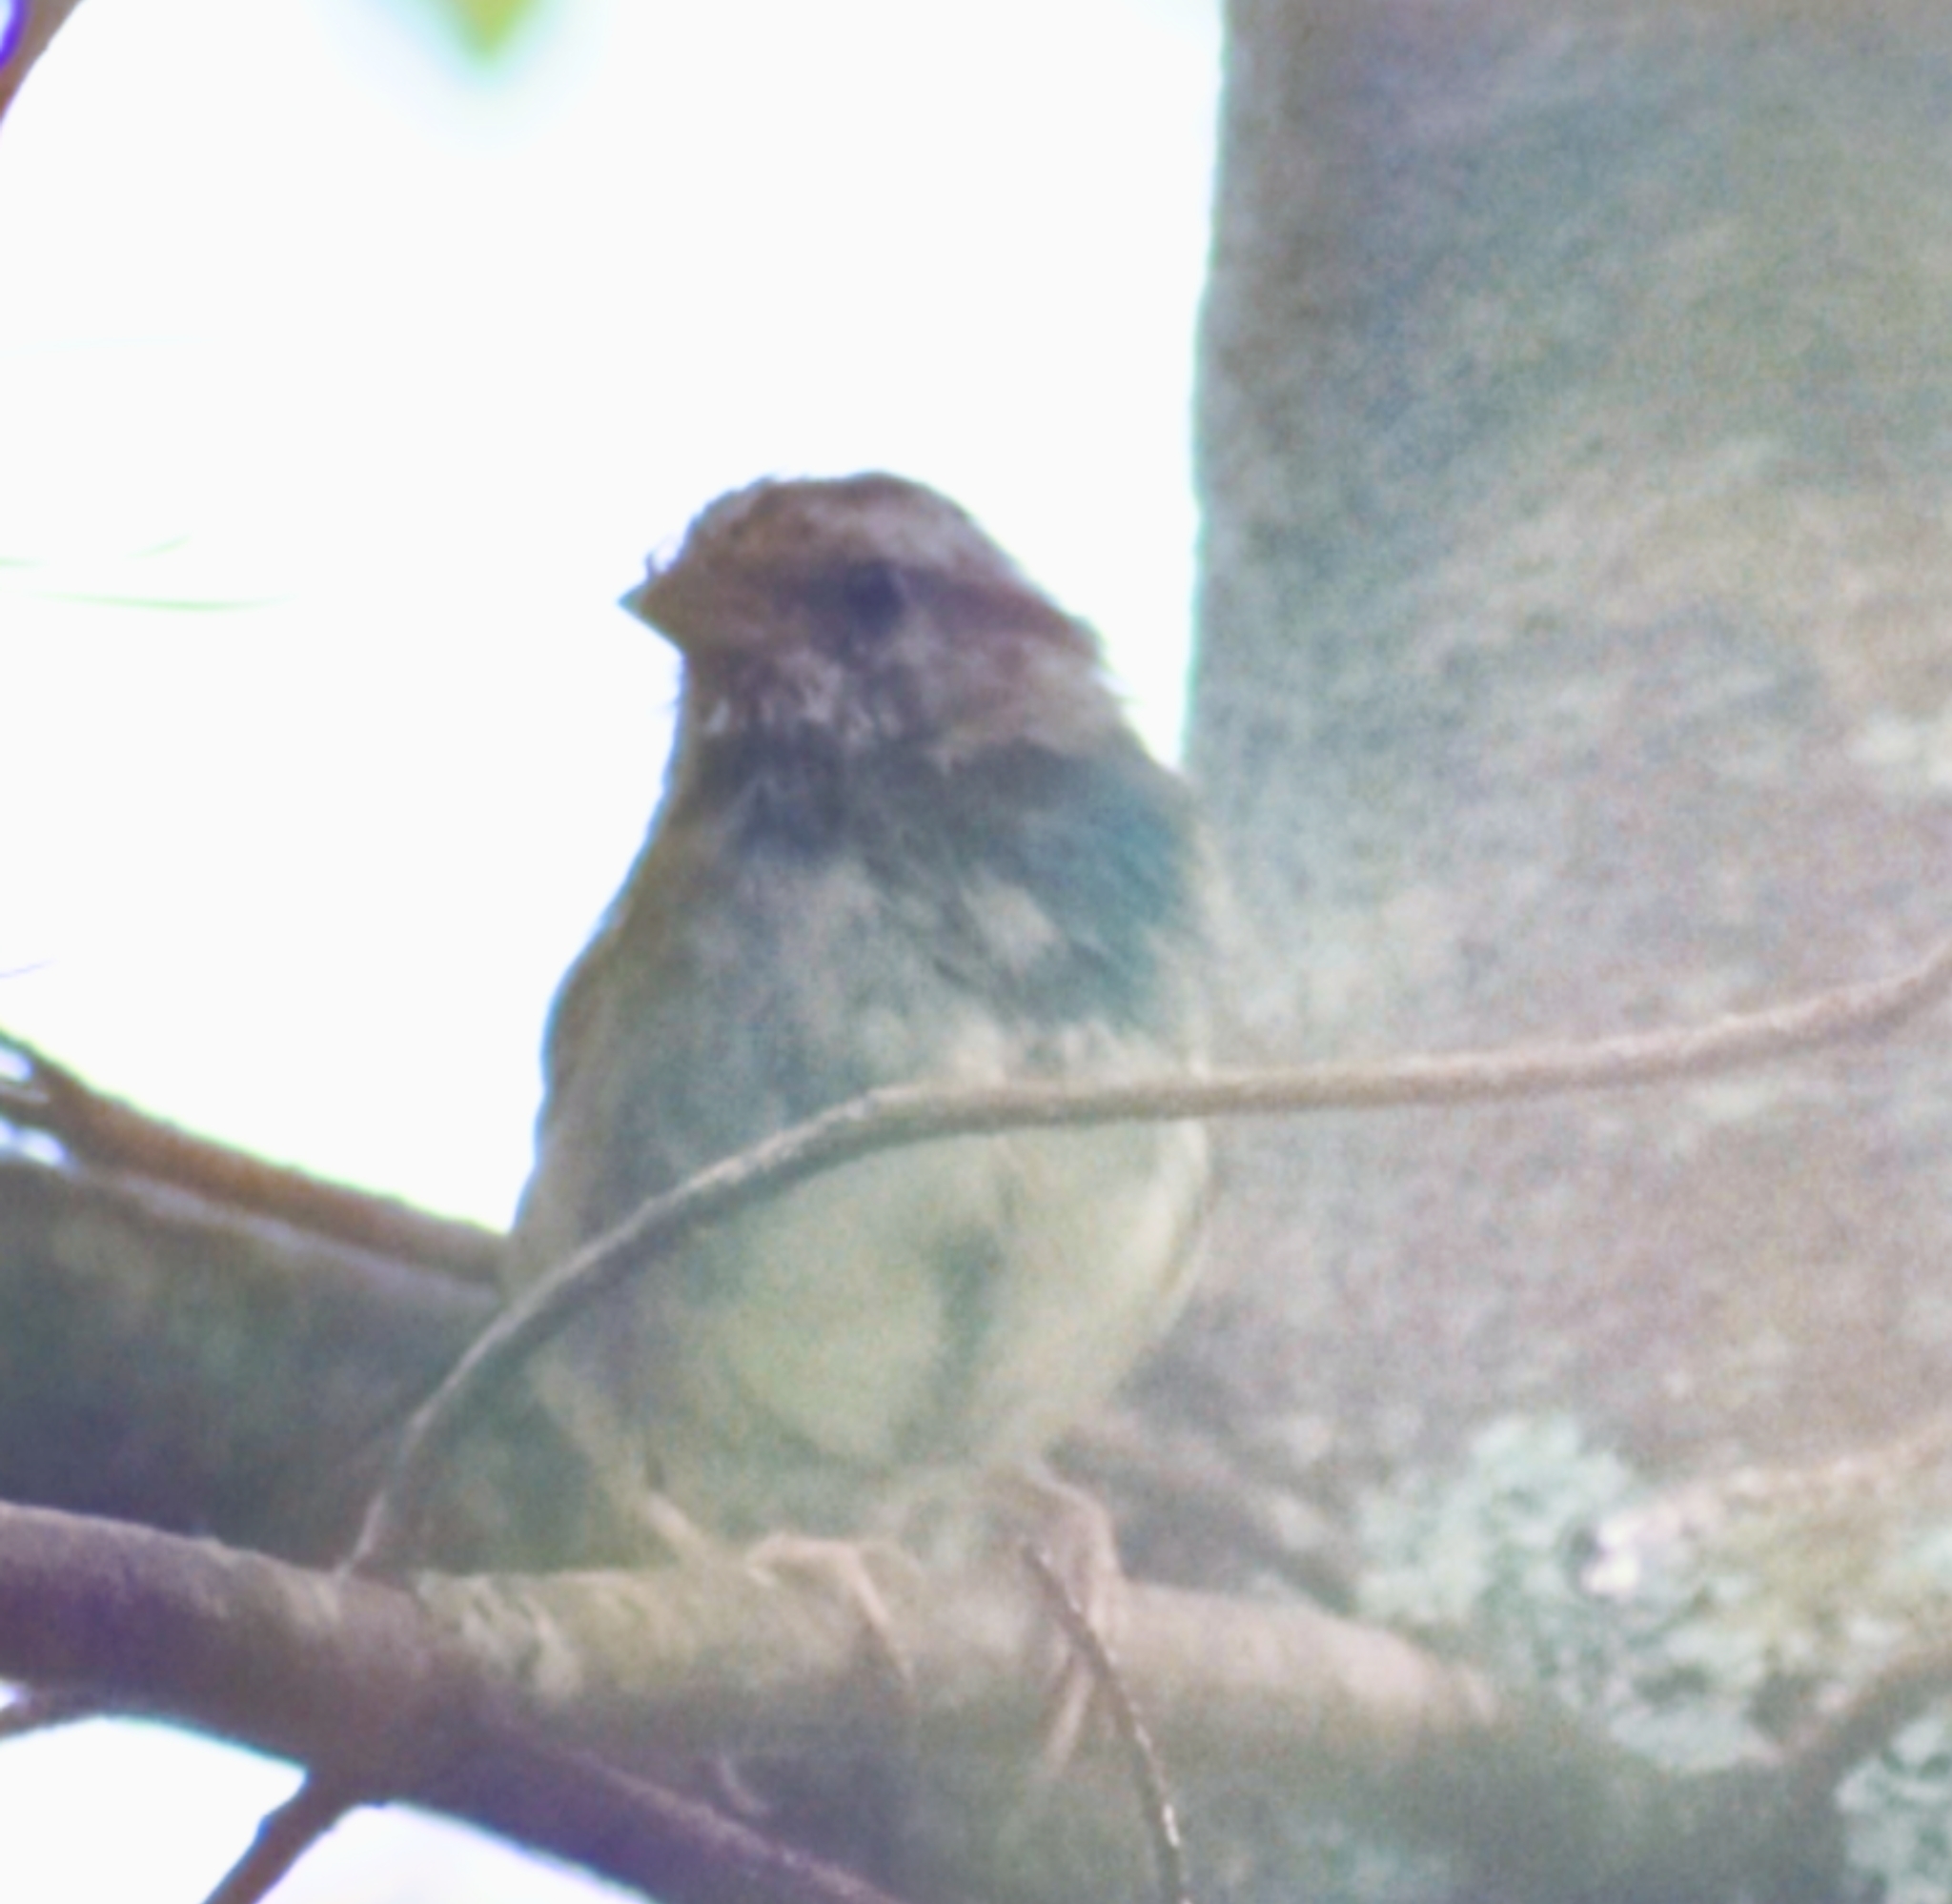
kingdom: Animalia
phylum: Chordata
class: Aves
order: Passeriformes
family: Passerellidae
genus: Zonotrichia
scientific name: Zonotrichia albicollis
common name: White-throated sparrow
